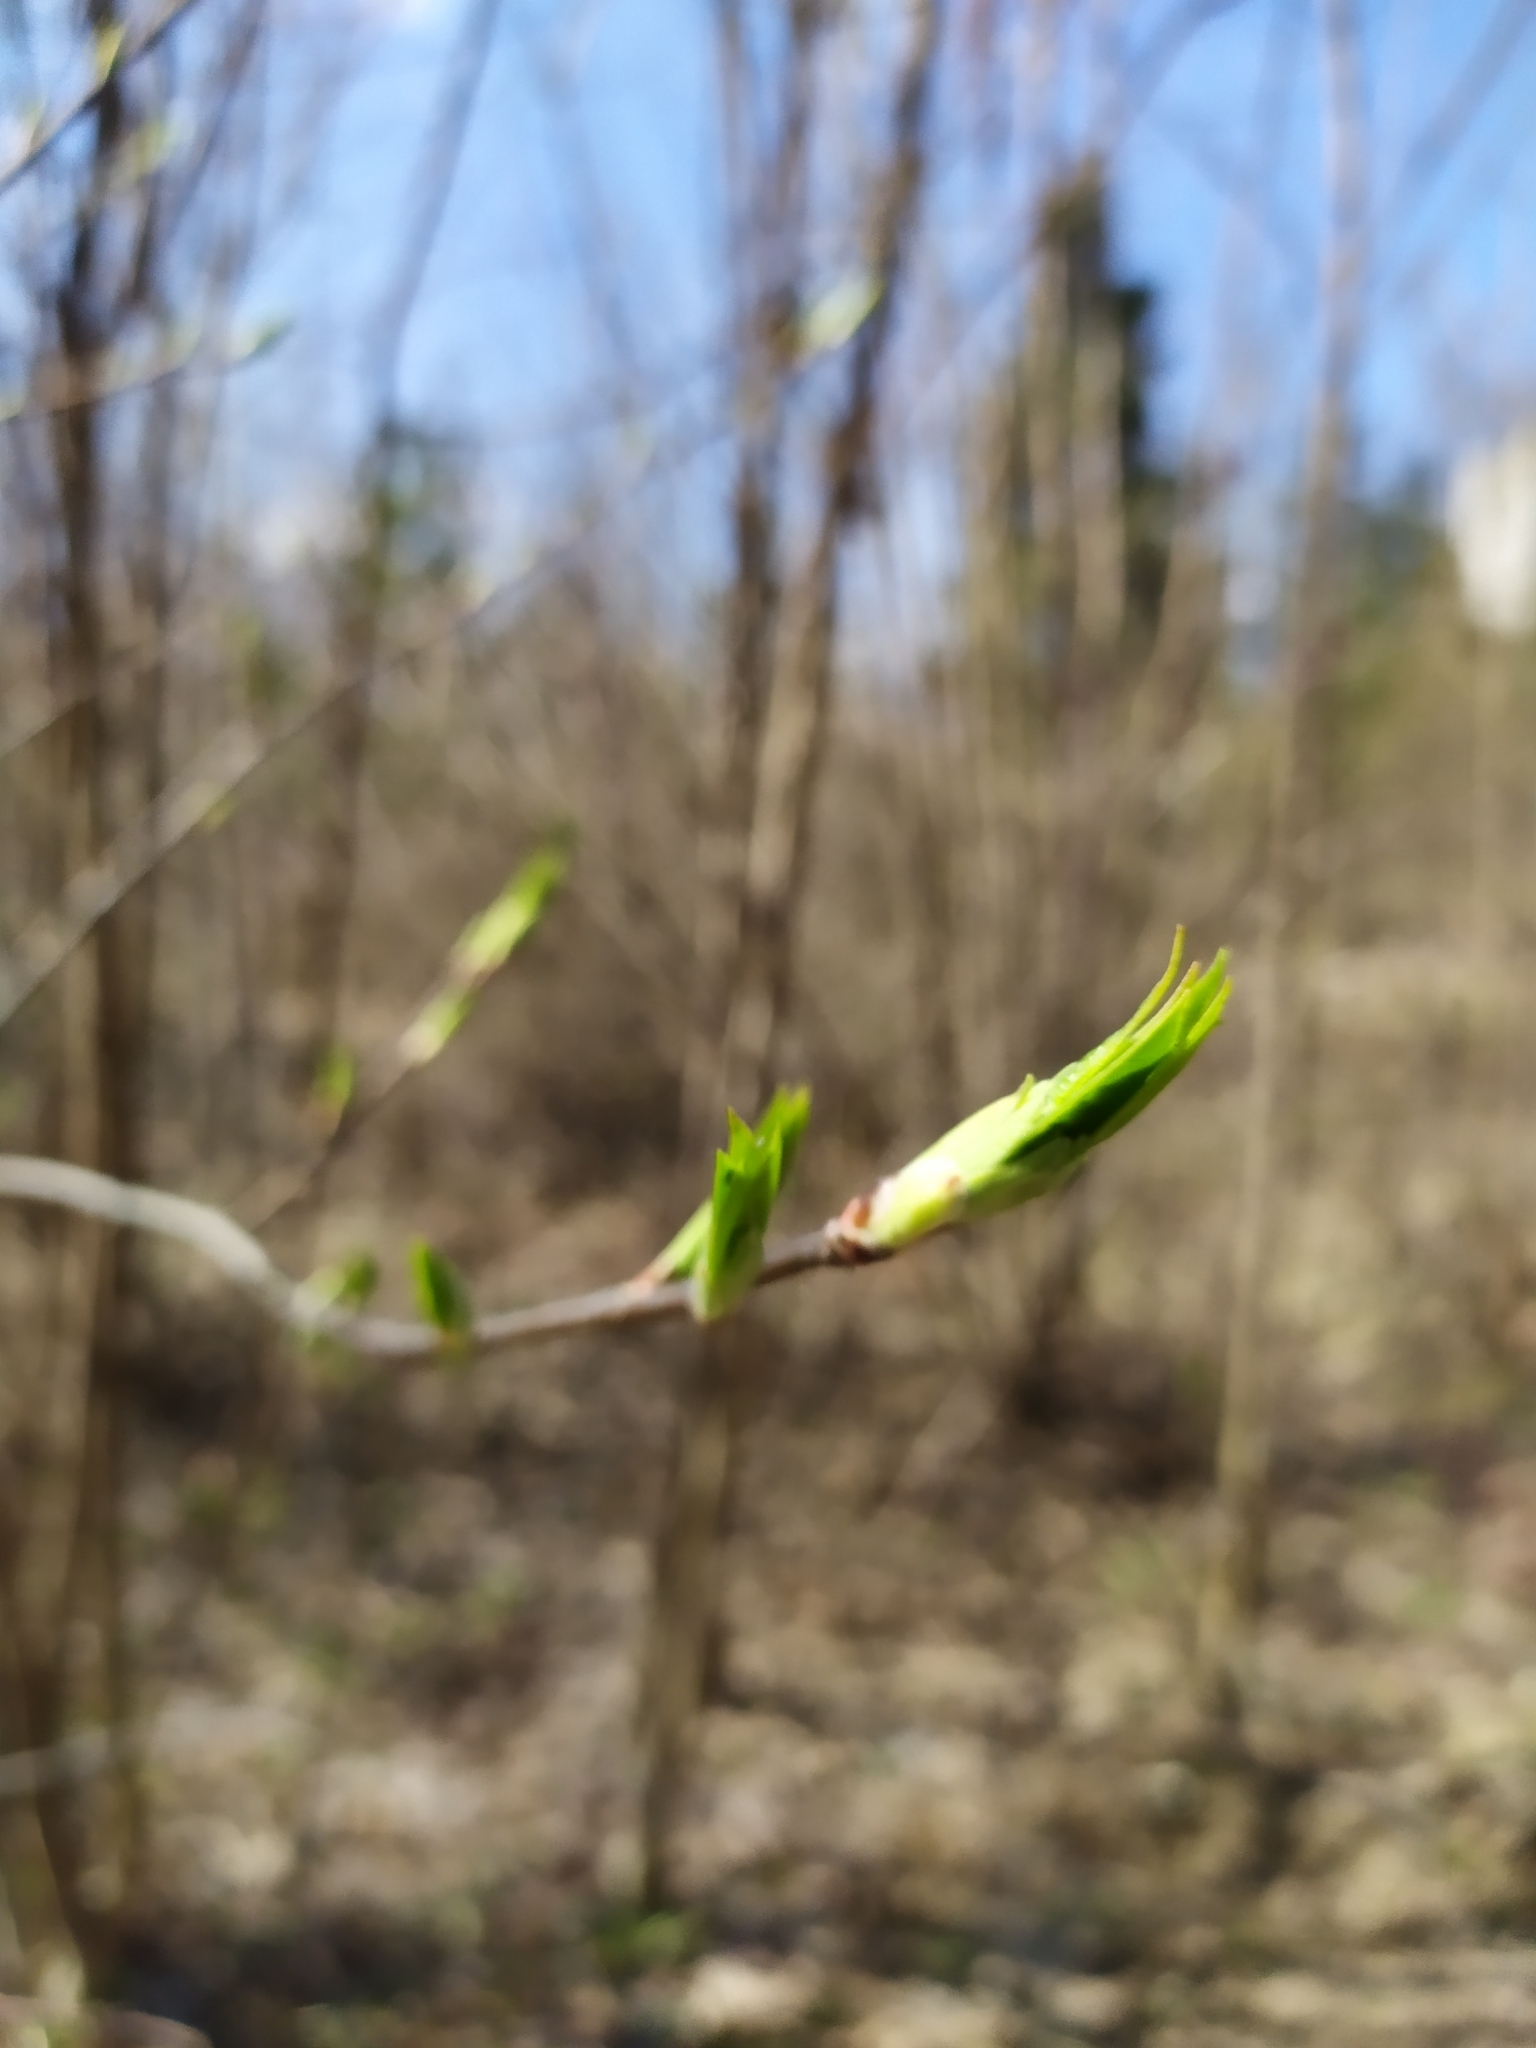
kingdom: Plantae
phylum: Tracheophyta
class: Magnoliopsida
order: Rosales
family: Rosaceae
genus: Prunus
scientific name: Prunus padus
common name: Bird cherry
